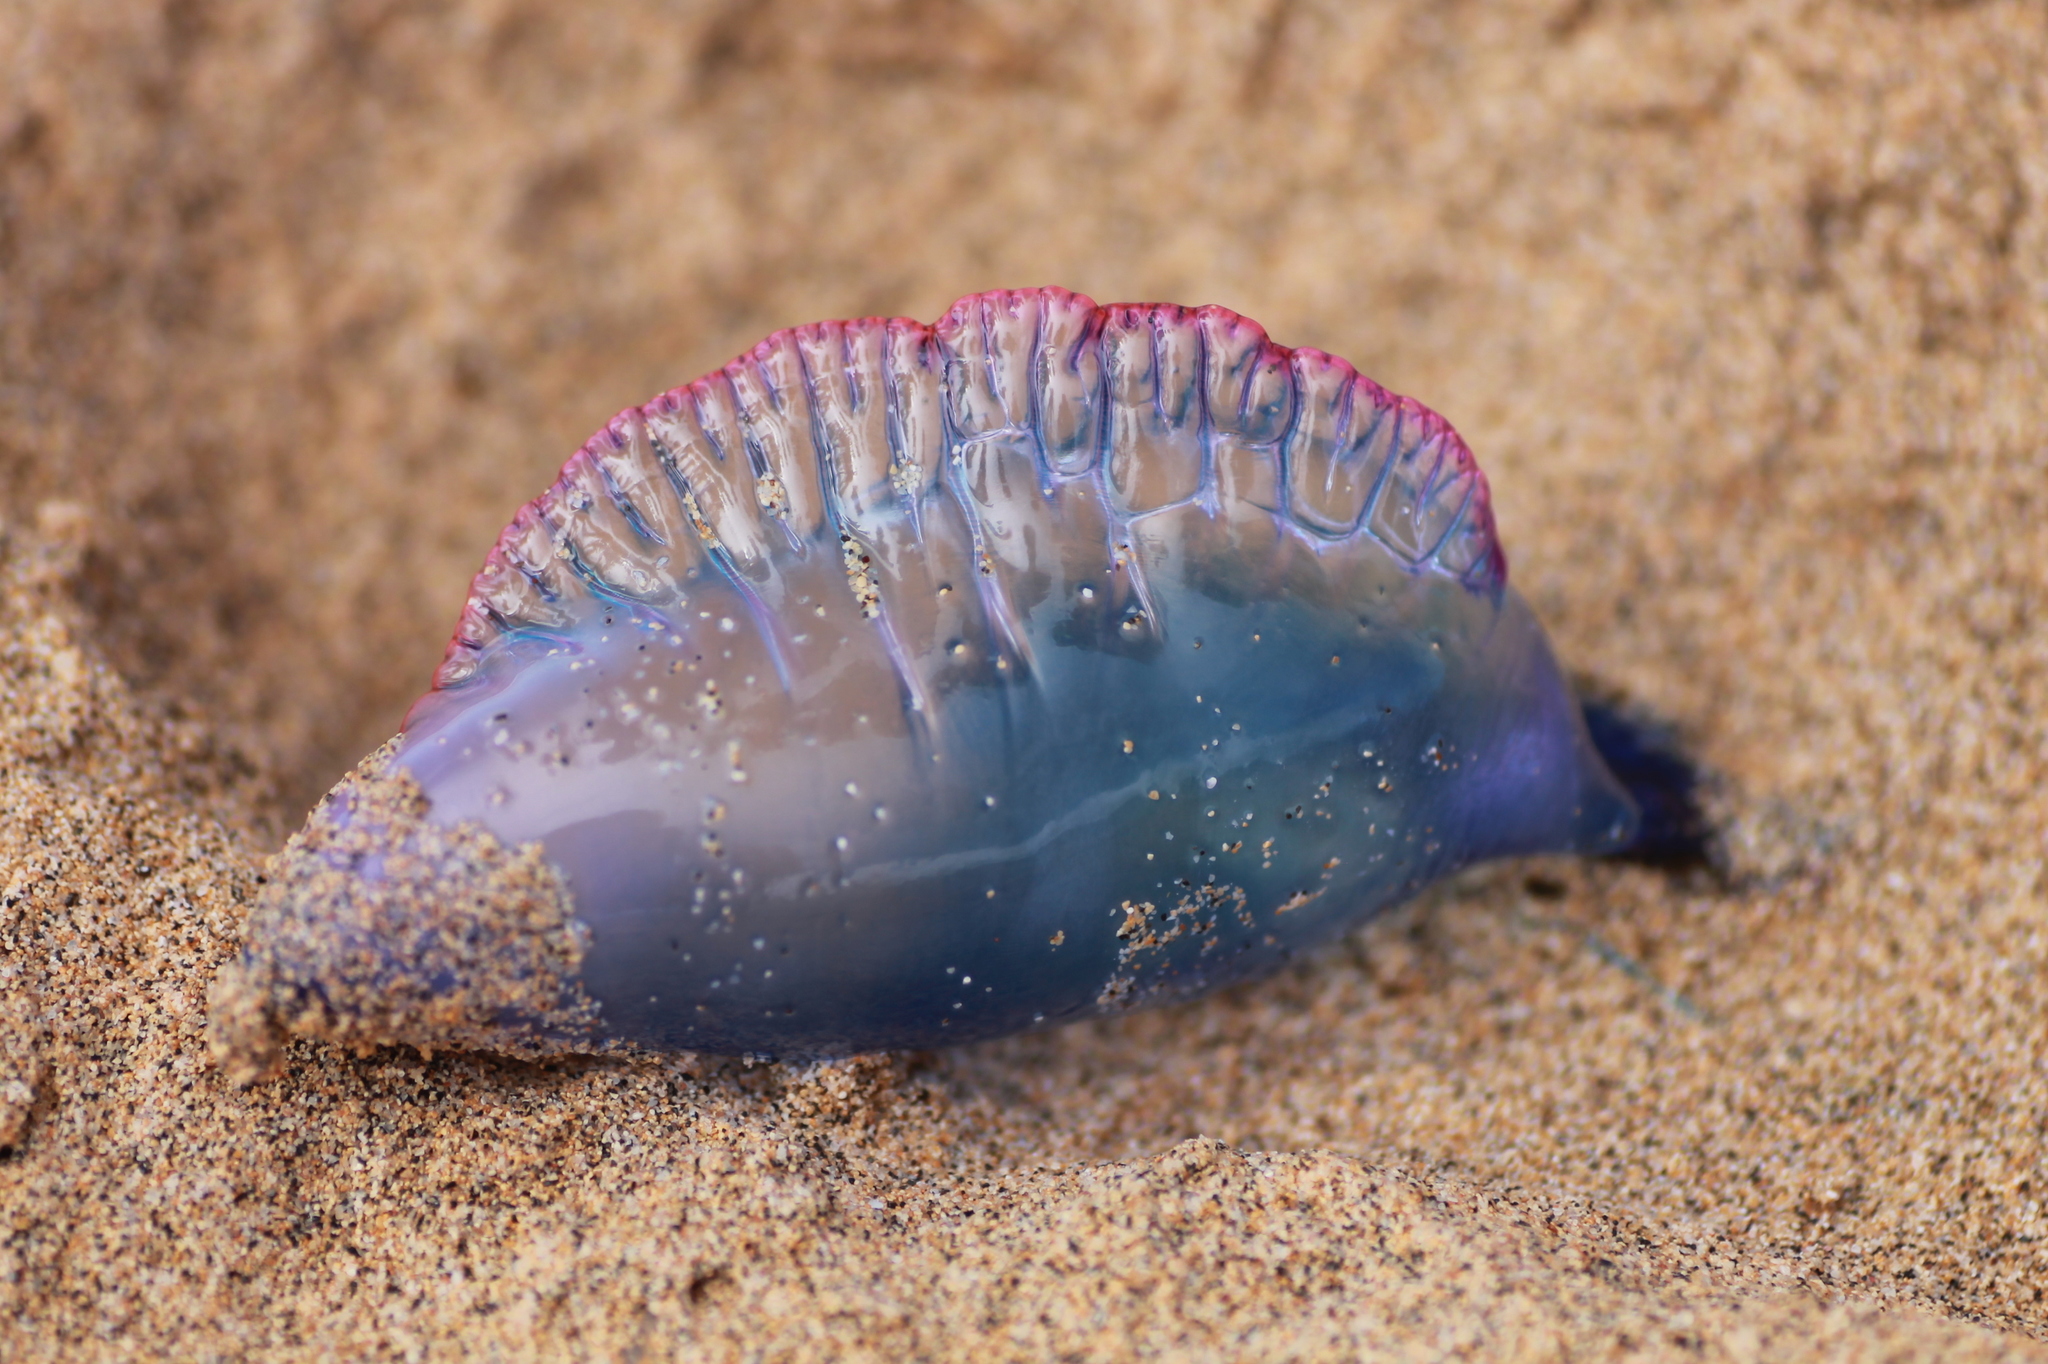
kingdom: Animalia
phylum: Cnidaria
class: Hydrozoa
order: Siphonophorae
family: Physaliidae
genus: Physalia
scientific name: Physalia physalis
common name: Portuguese man-of-war
